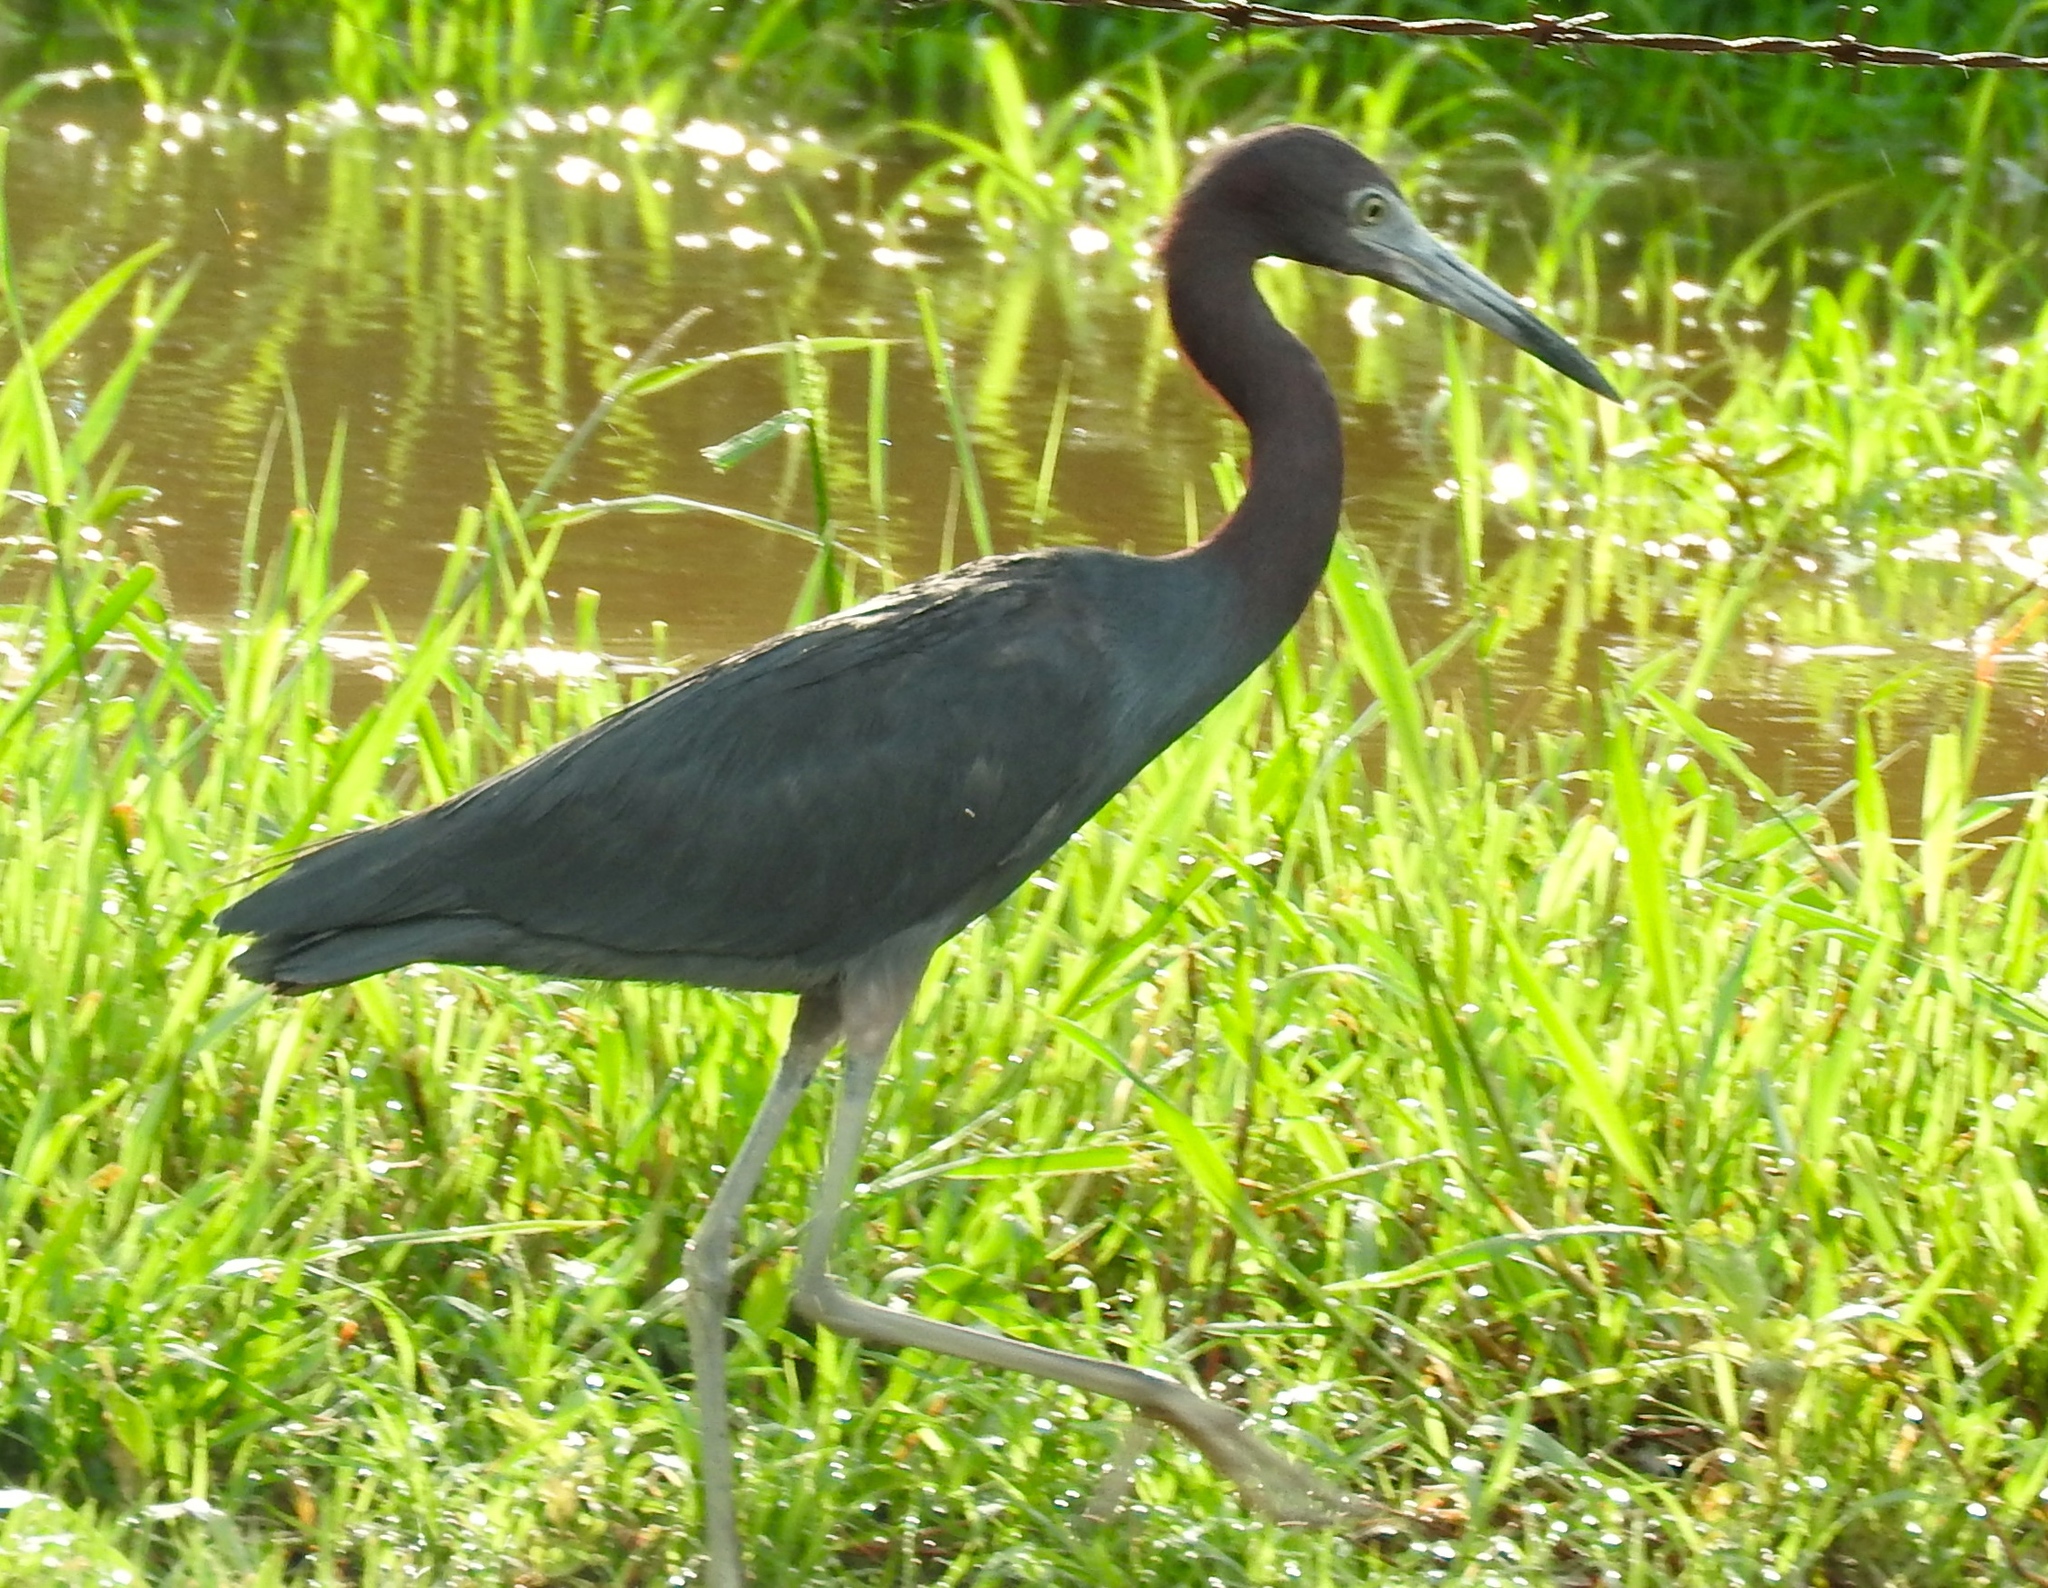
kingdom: Animalia
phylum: Chordata
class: Aves
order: Pelecaniformes
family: Ardeidae
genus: Egretta
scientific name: Egretta caerulea
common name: Little blue heron
